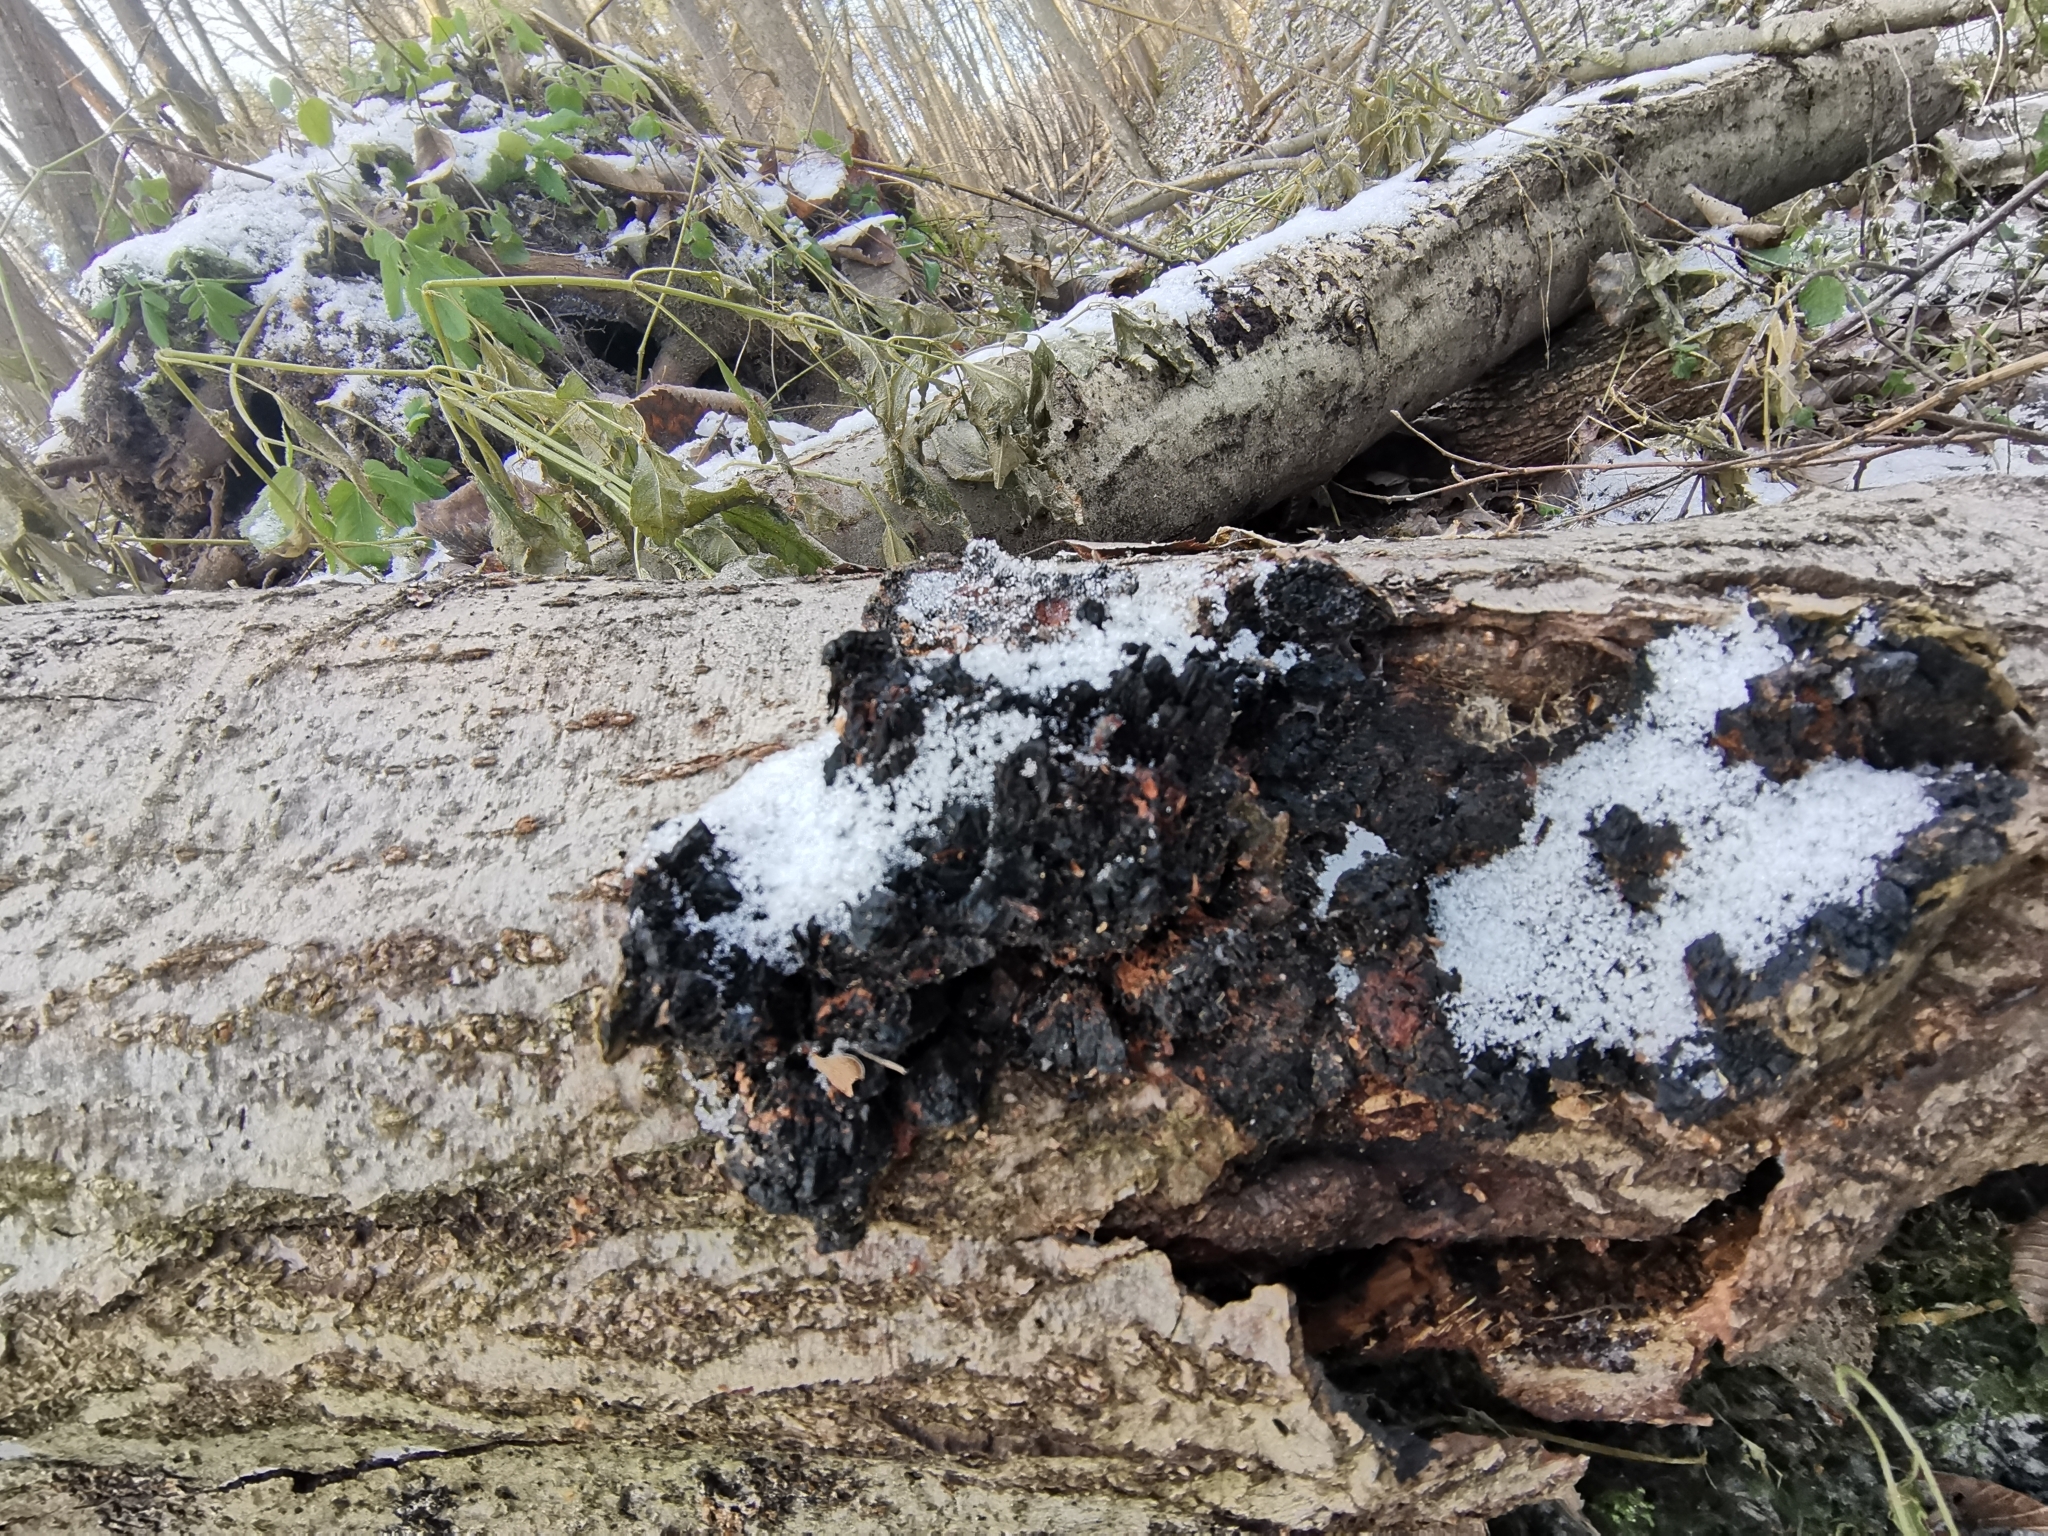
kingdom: Fungi
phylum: Basidiomycota
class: Agaricomycetes
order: Hymenochaetales
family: Hymenochaetaceae
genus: Inonotus
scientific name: Inonotus obliquus
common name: Chaga
